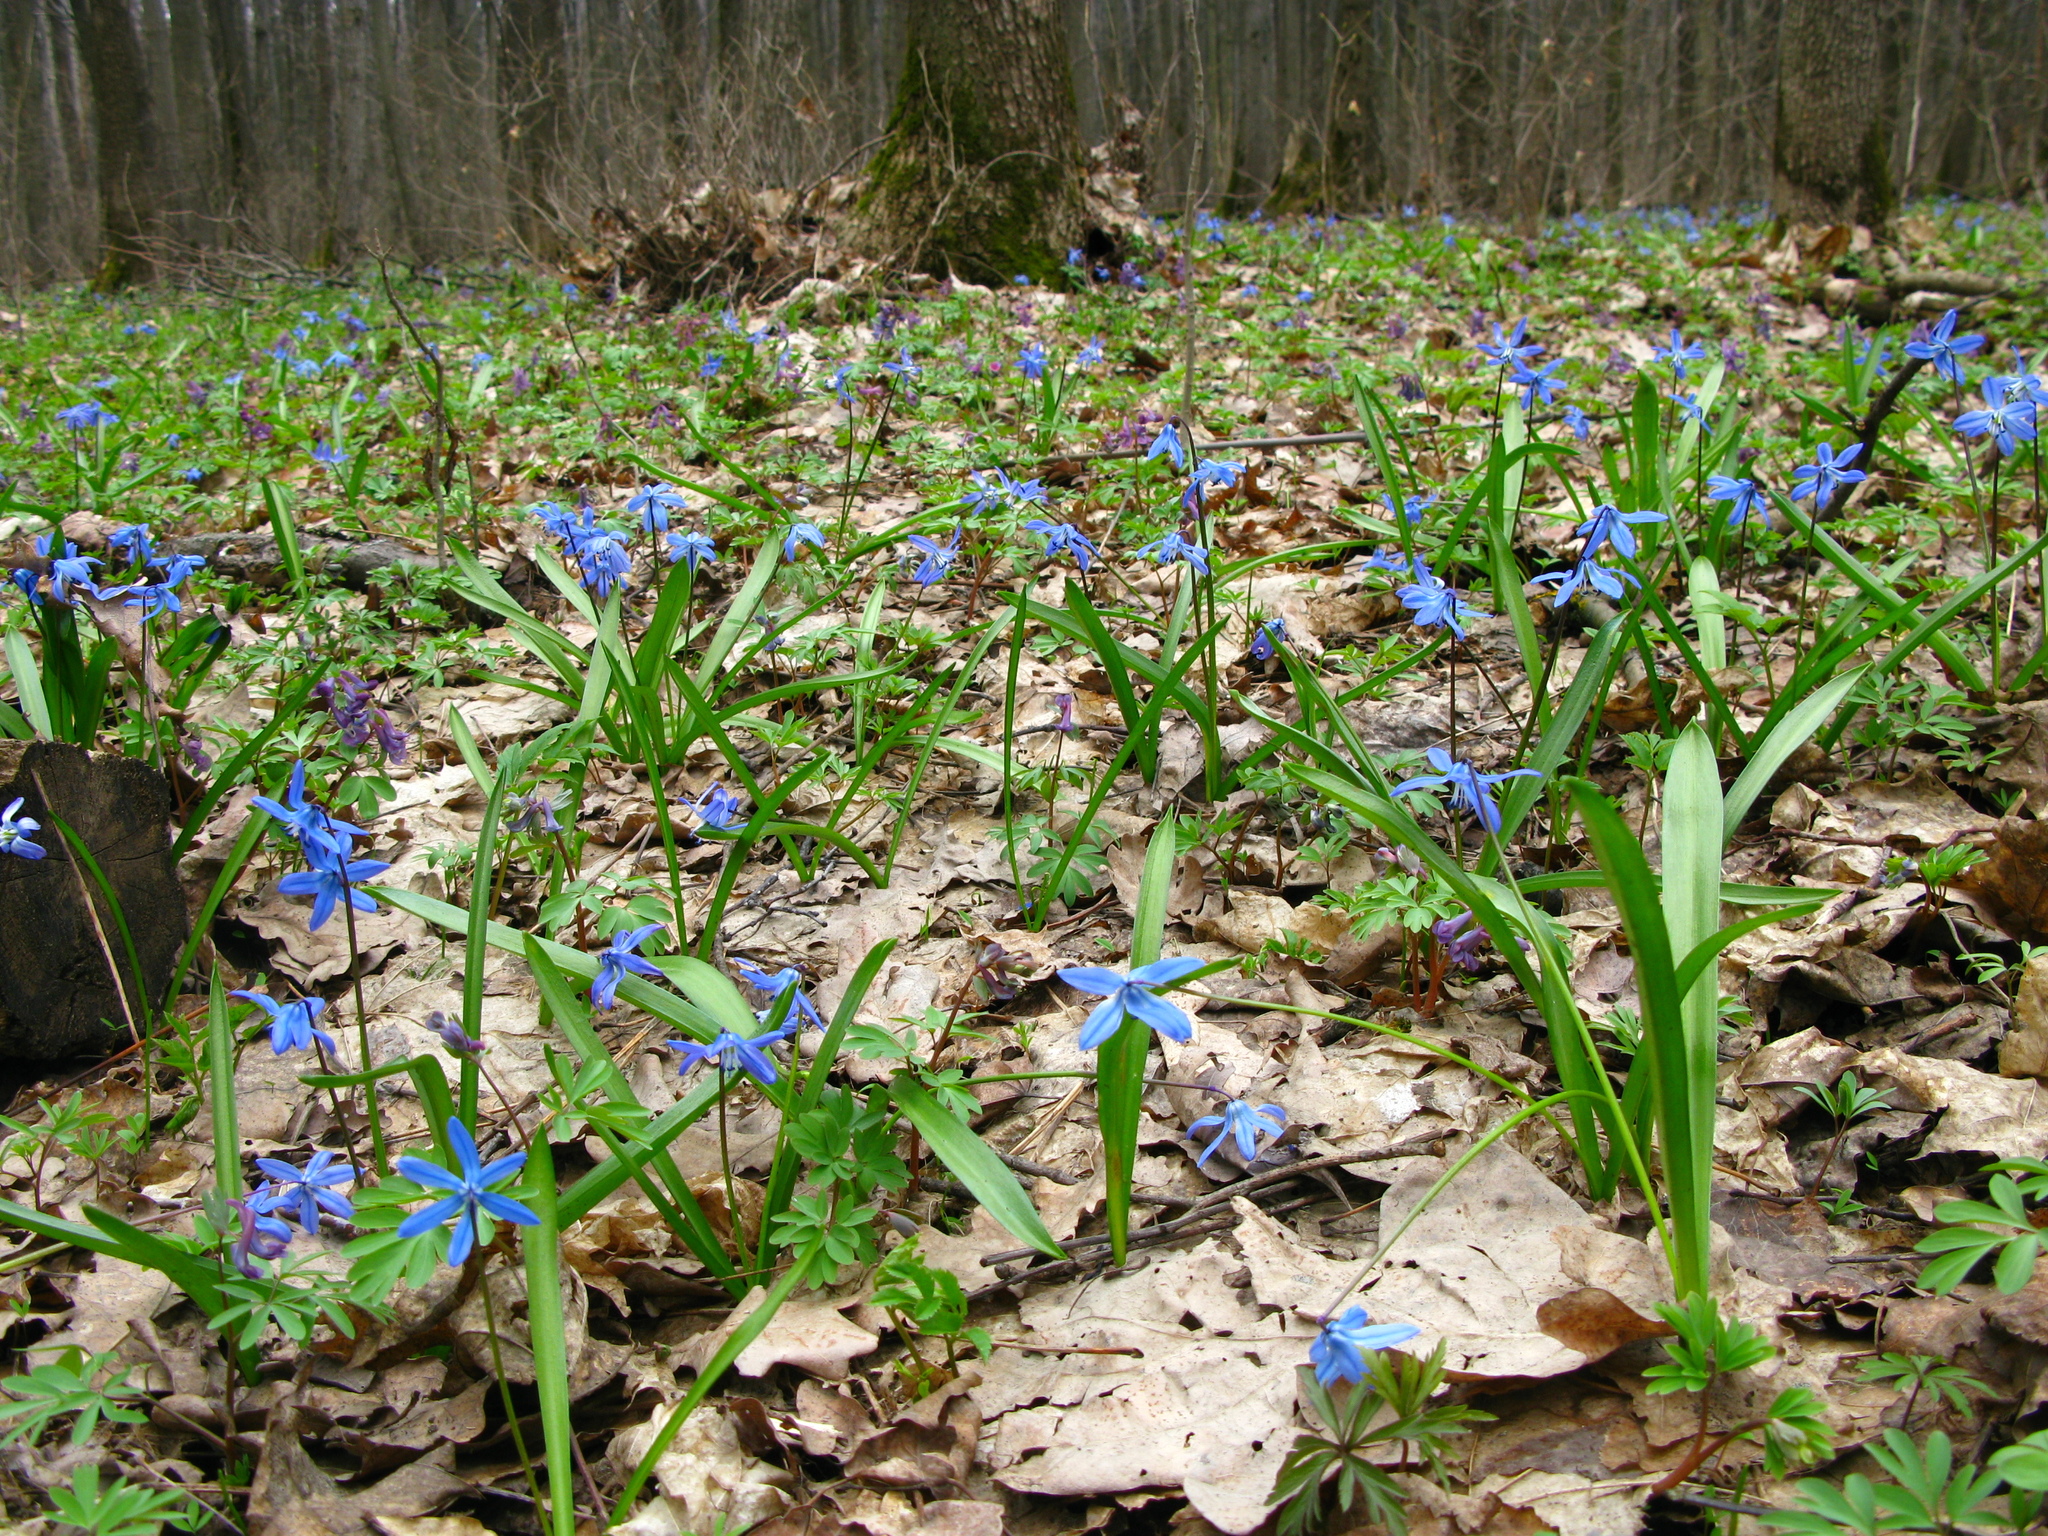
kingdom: Plantae
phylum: Tracheophyta
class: Liliopsida
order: Asparagales
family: Asparagaceae
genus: Scilla
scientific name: Scilla siberica
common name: Siberian squill
